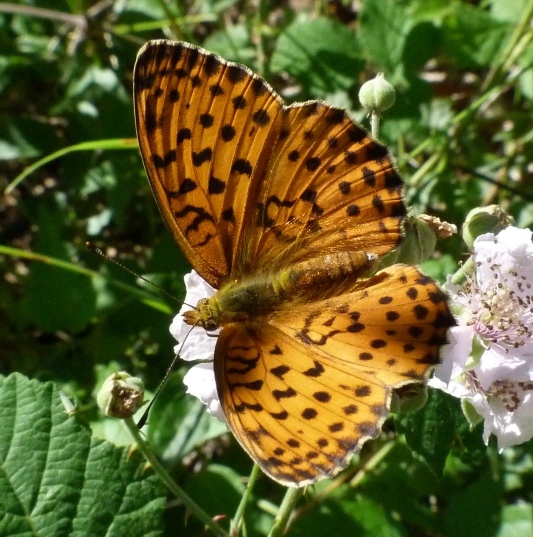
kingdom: Animalia
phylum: Arthropoda
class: Insecta
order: Lepidoptera
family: Nymphalidae
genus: Brenthis
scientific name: Brenthis daphne
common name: Marbled fritillary
